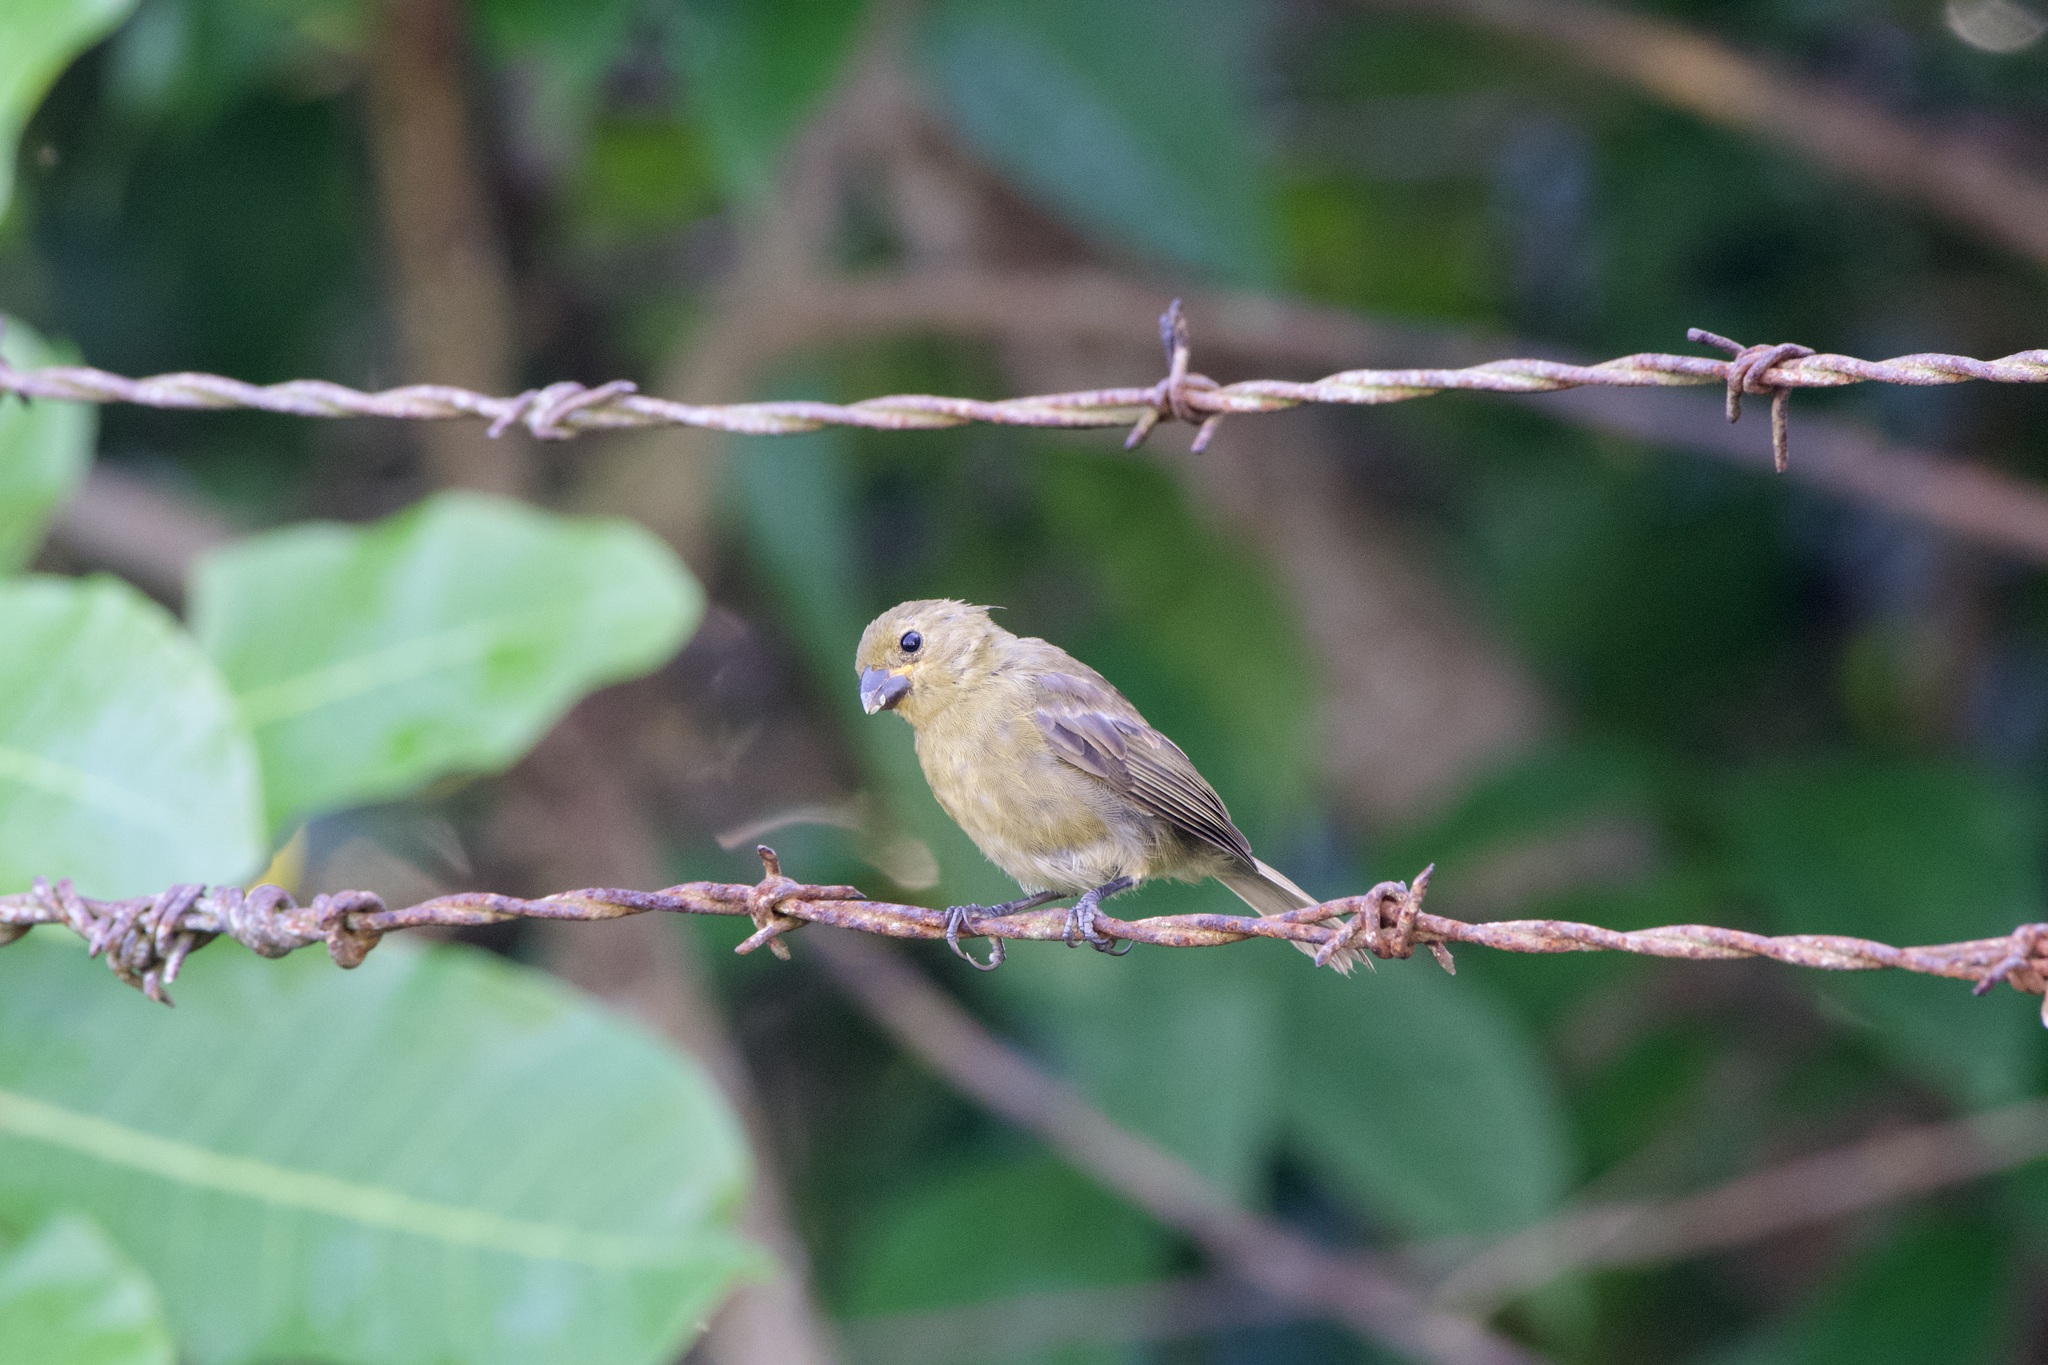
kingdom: Animalia
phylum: Chordata
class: Aves
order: Passeriformes
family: Thraupidae
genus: Sporophila
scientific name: Sporophila corvina
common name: Variable seedeater
